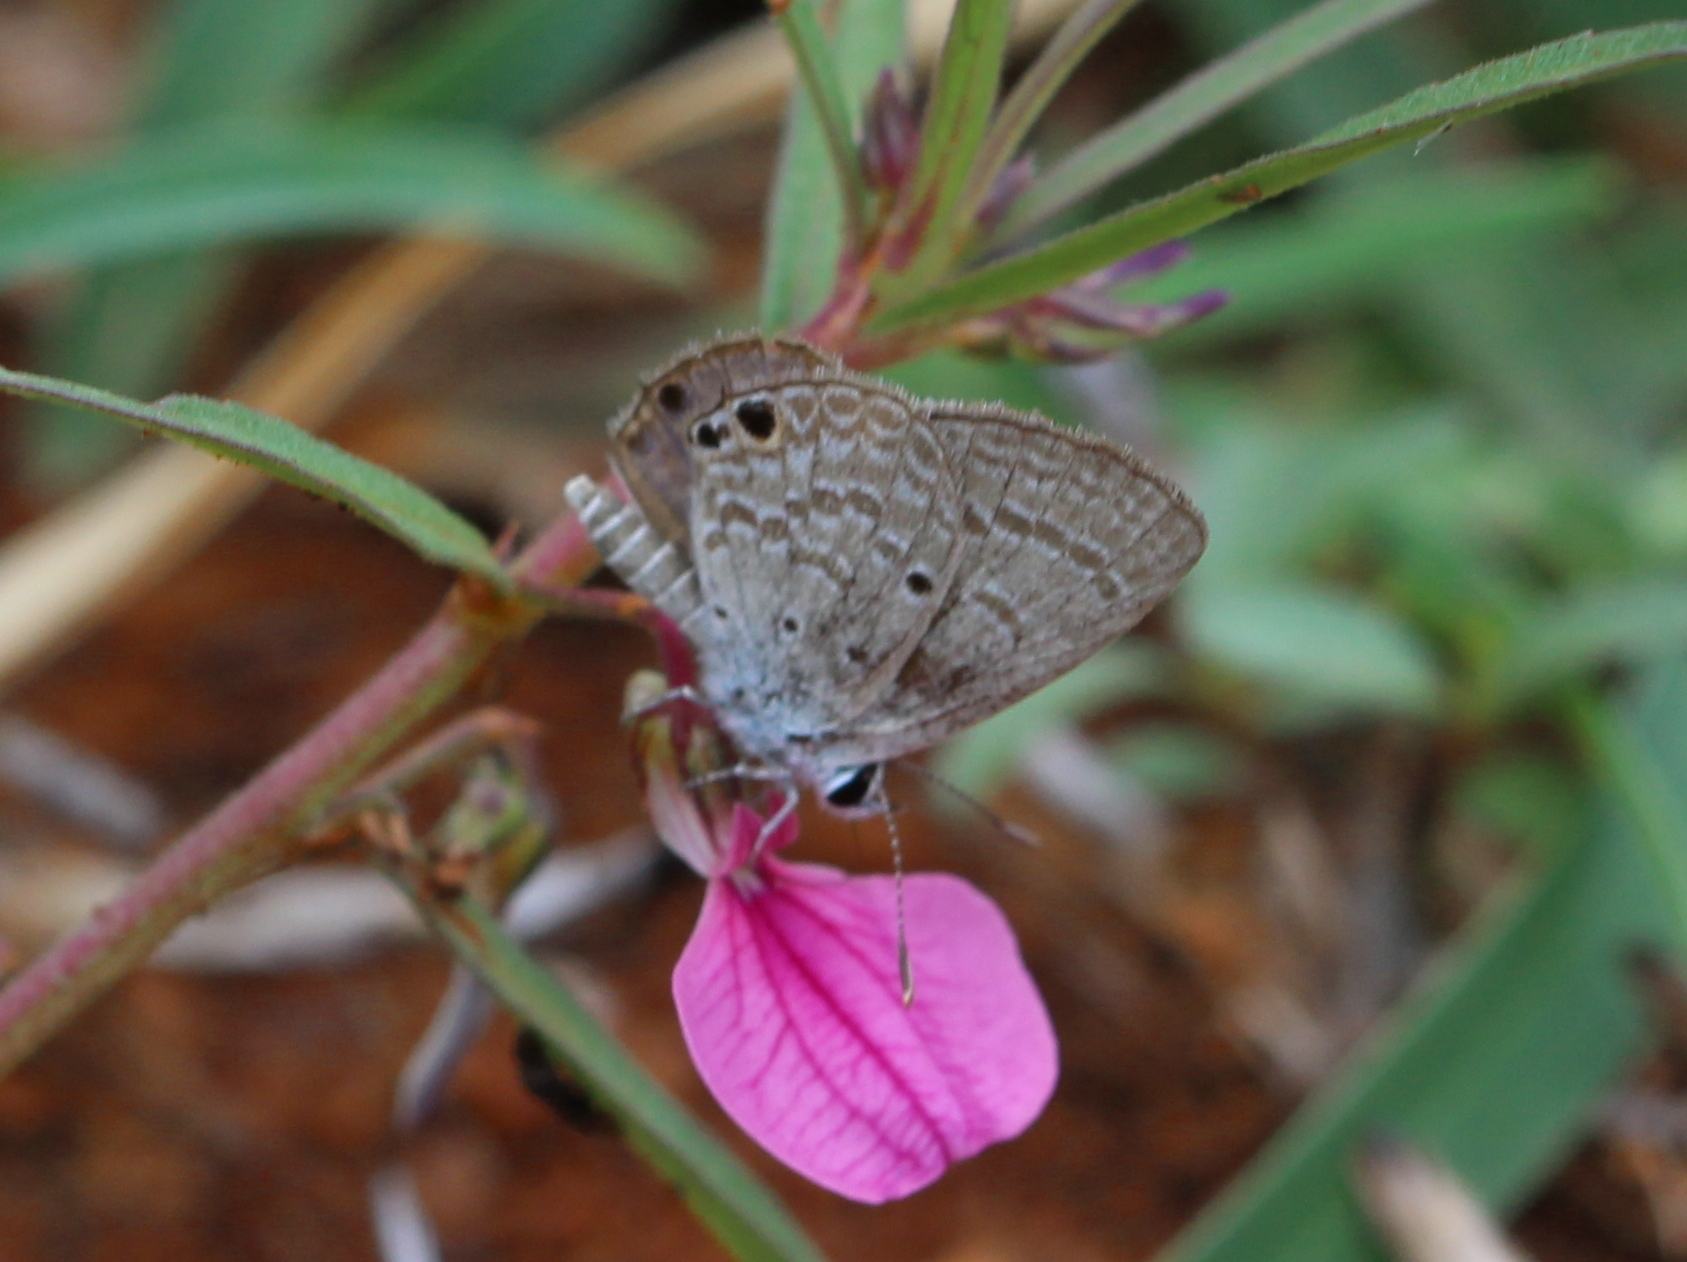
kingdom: Animalia
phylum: Arthropoda
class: Insecta
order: Lepidoptera
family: Lycaenidae
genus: Chilades
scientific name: Chilades parrhasius
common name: Small cupid
